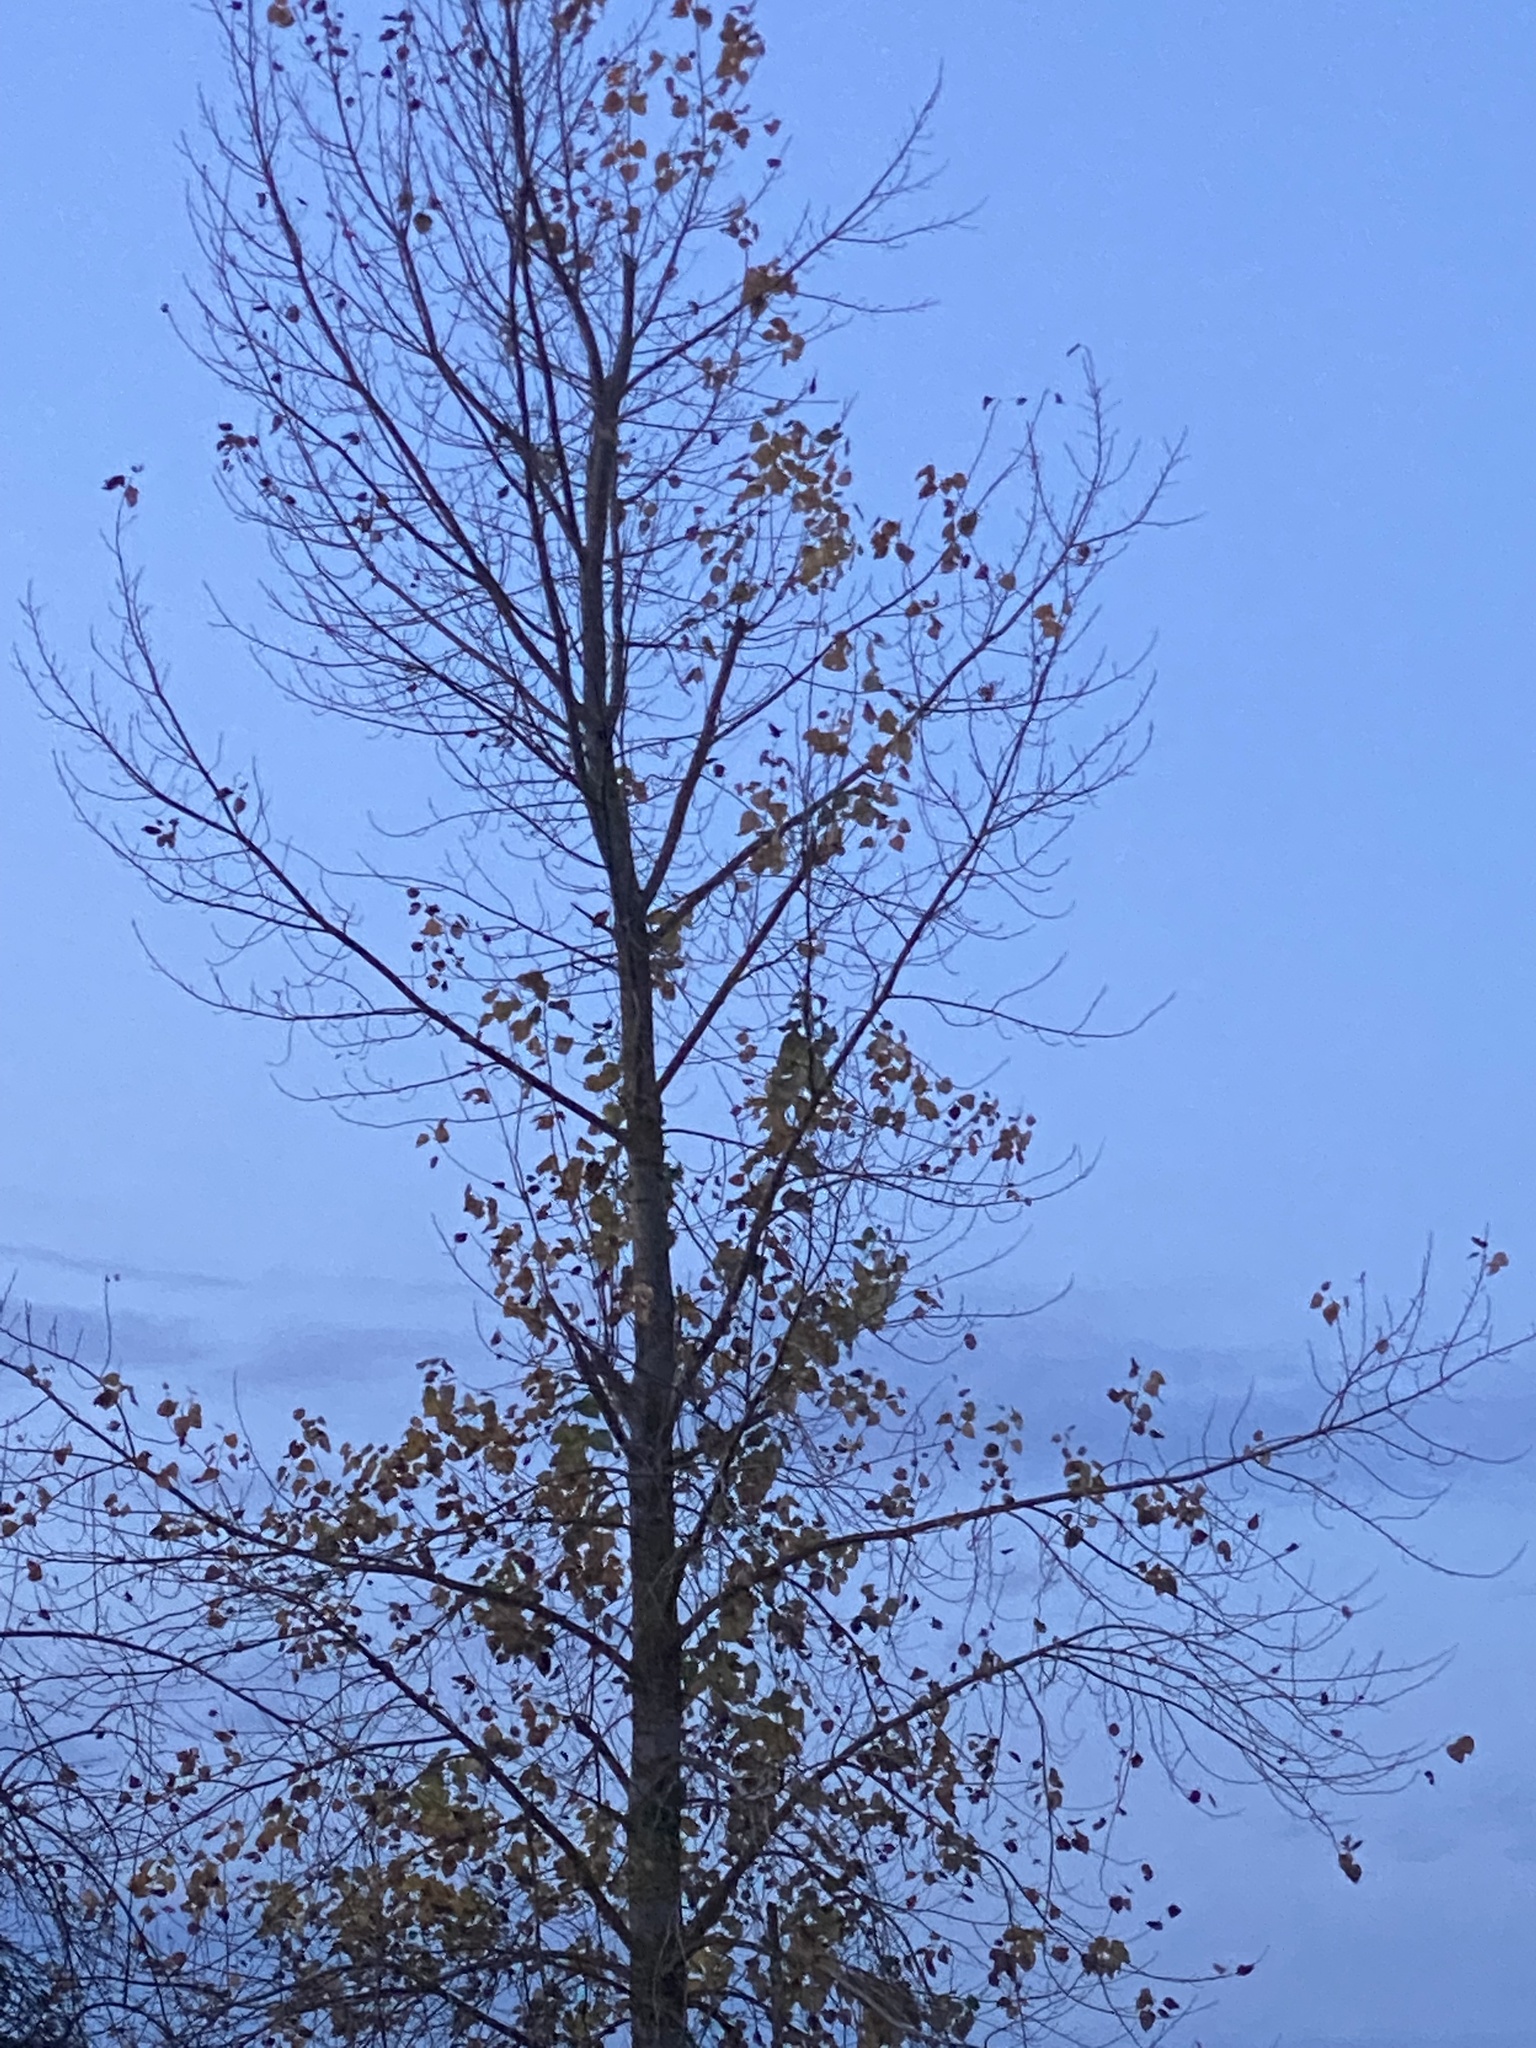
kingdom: Plantae
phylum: Tracheophyta
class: Magnoliopsida
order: Malpighiales
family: Salicaceae
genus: Populus
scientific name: Populus trichocarpa
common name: Black cottonwood
